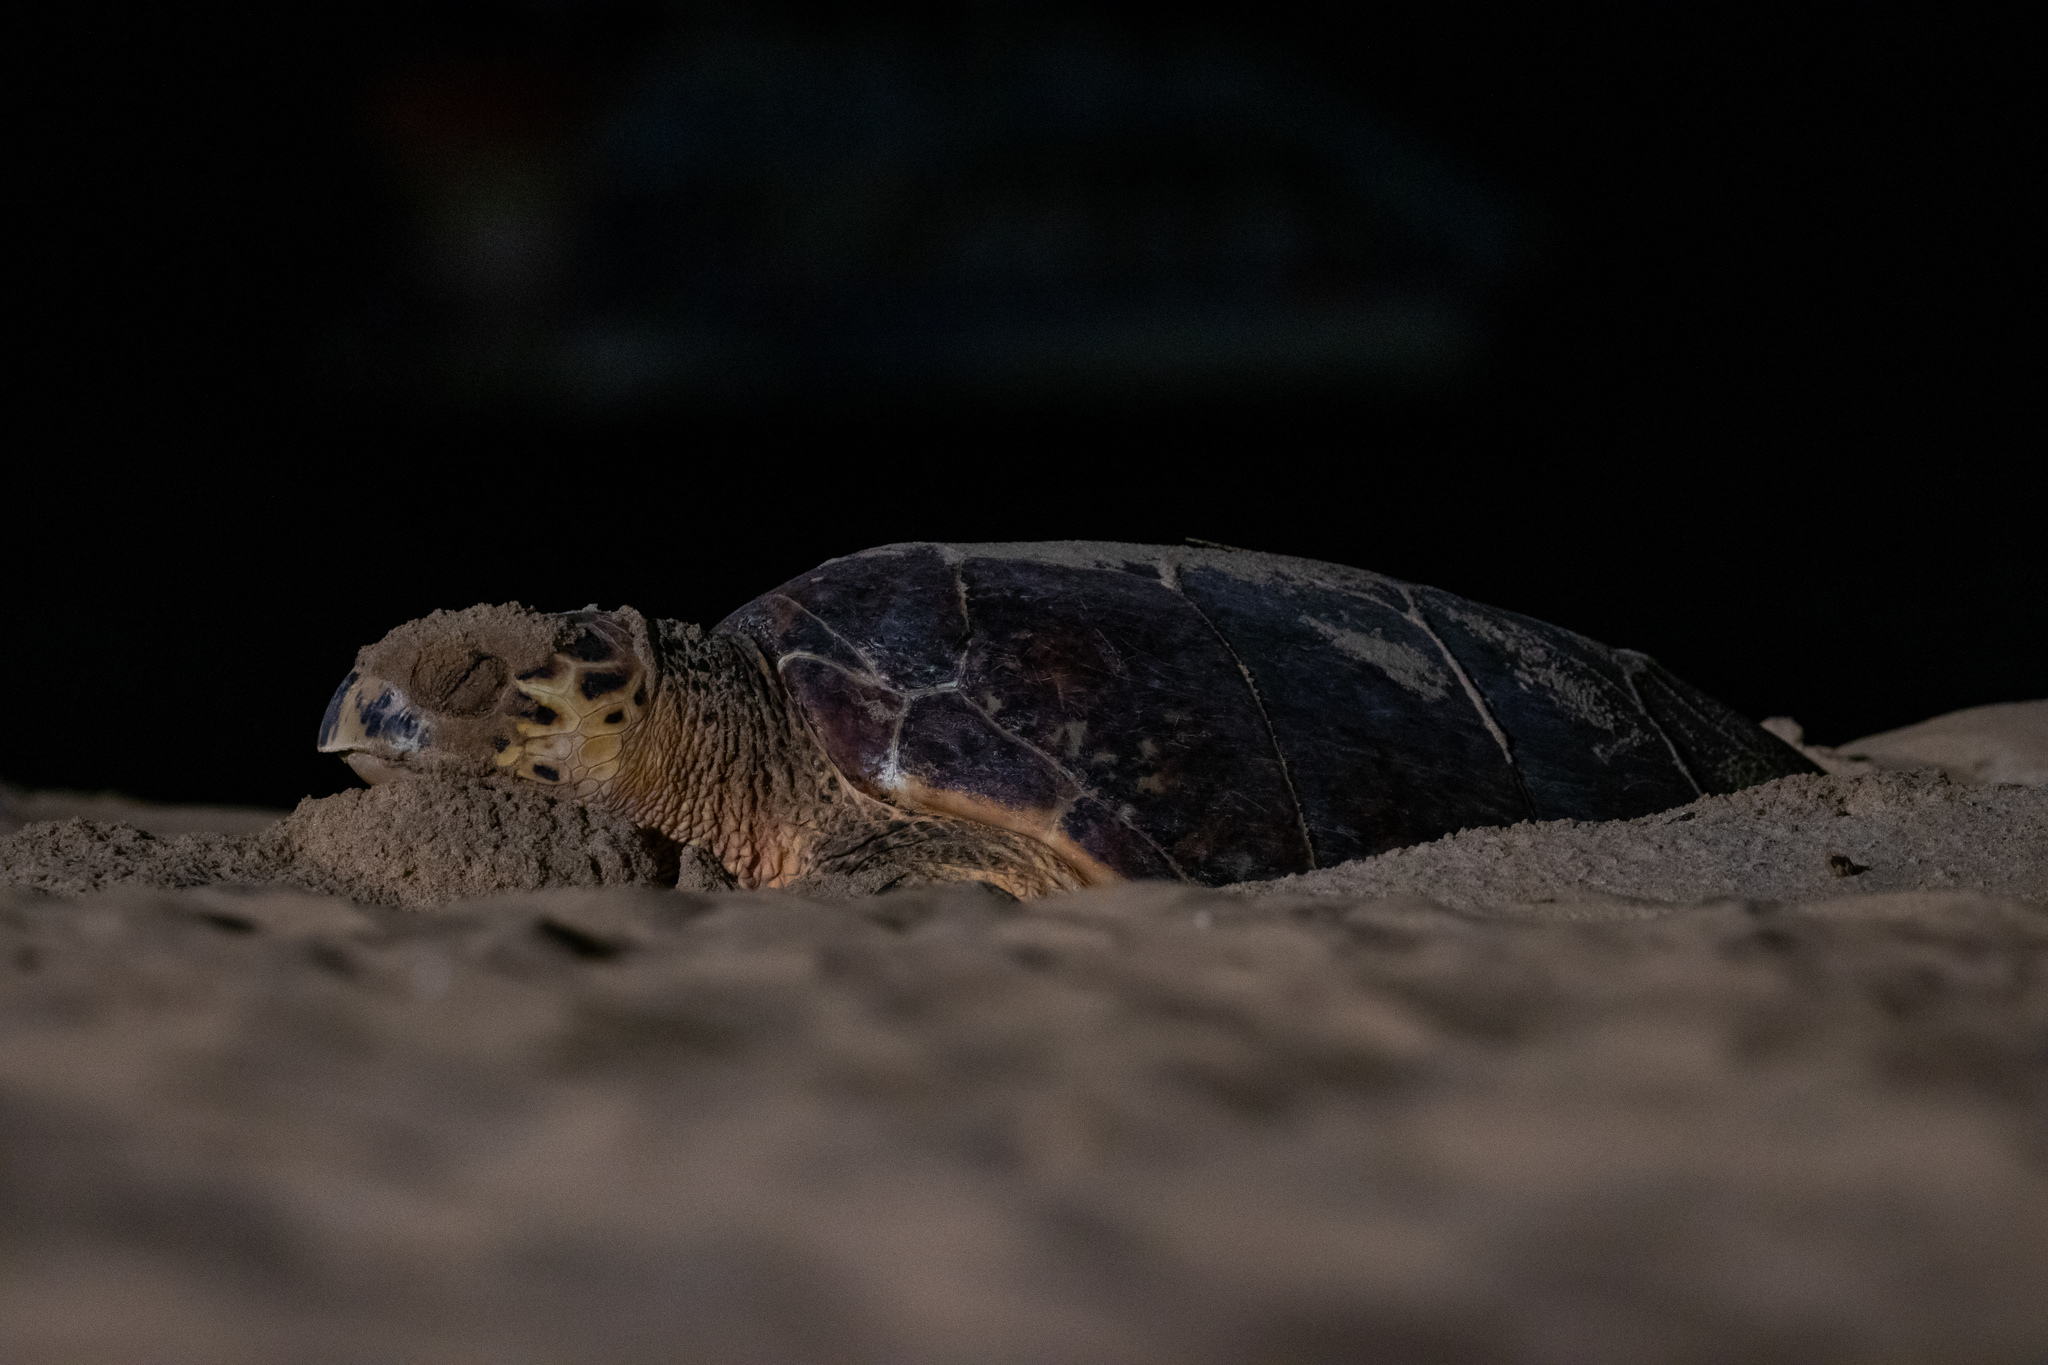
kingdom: Animalia
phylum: Chordata
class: Testudines
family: Cheloniidae
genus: Eretmochelys
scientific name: Eretmochelys imbricata
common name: Hawksbill turtle
